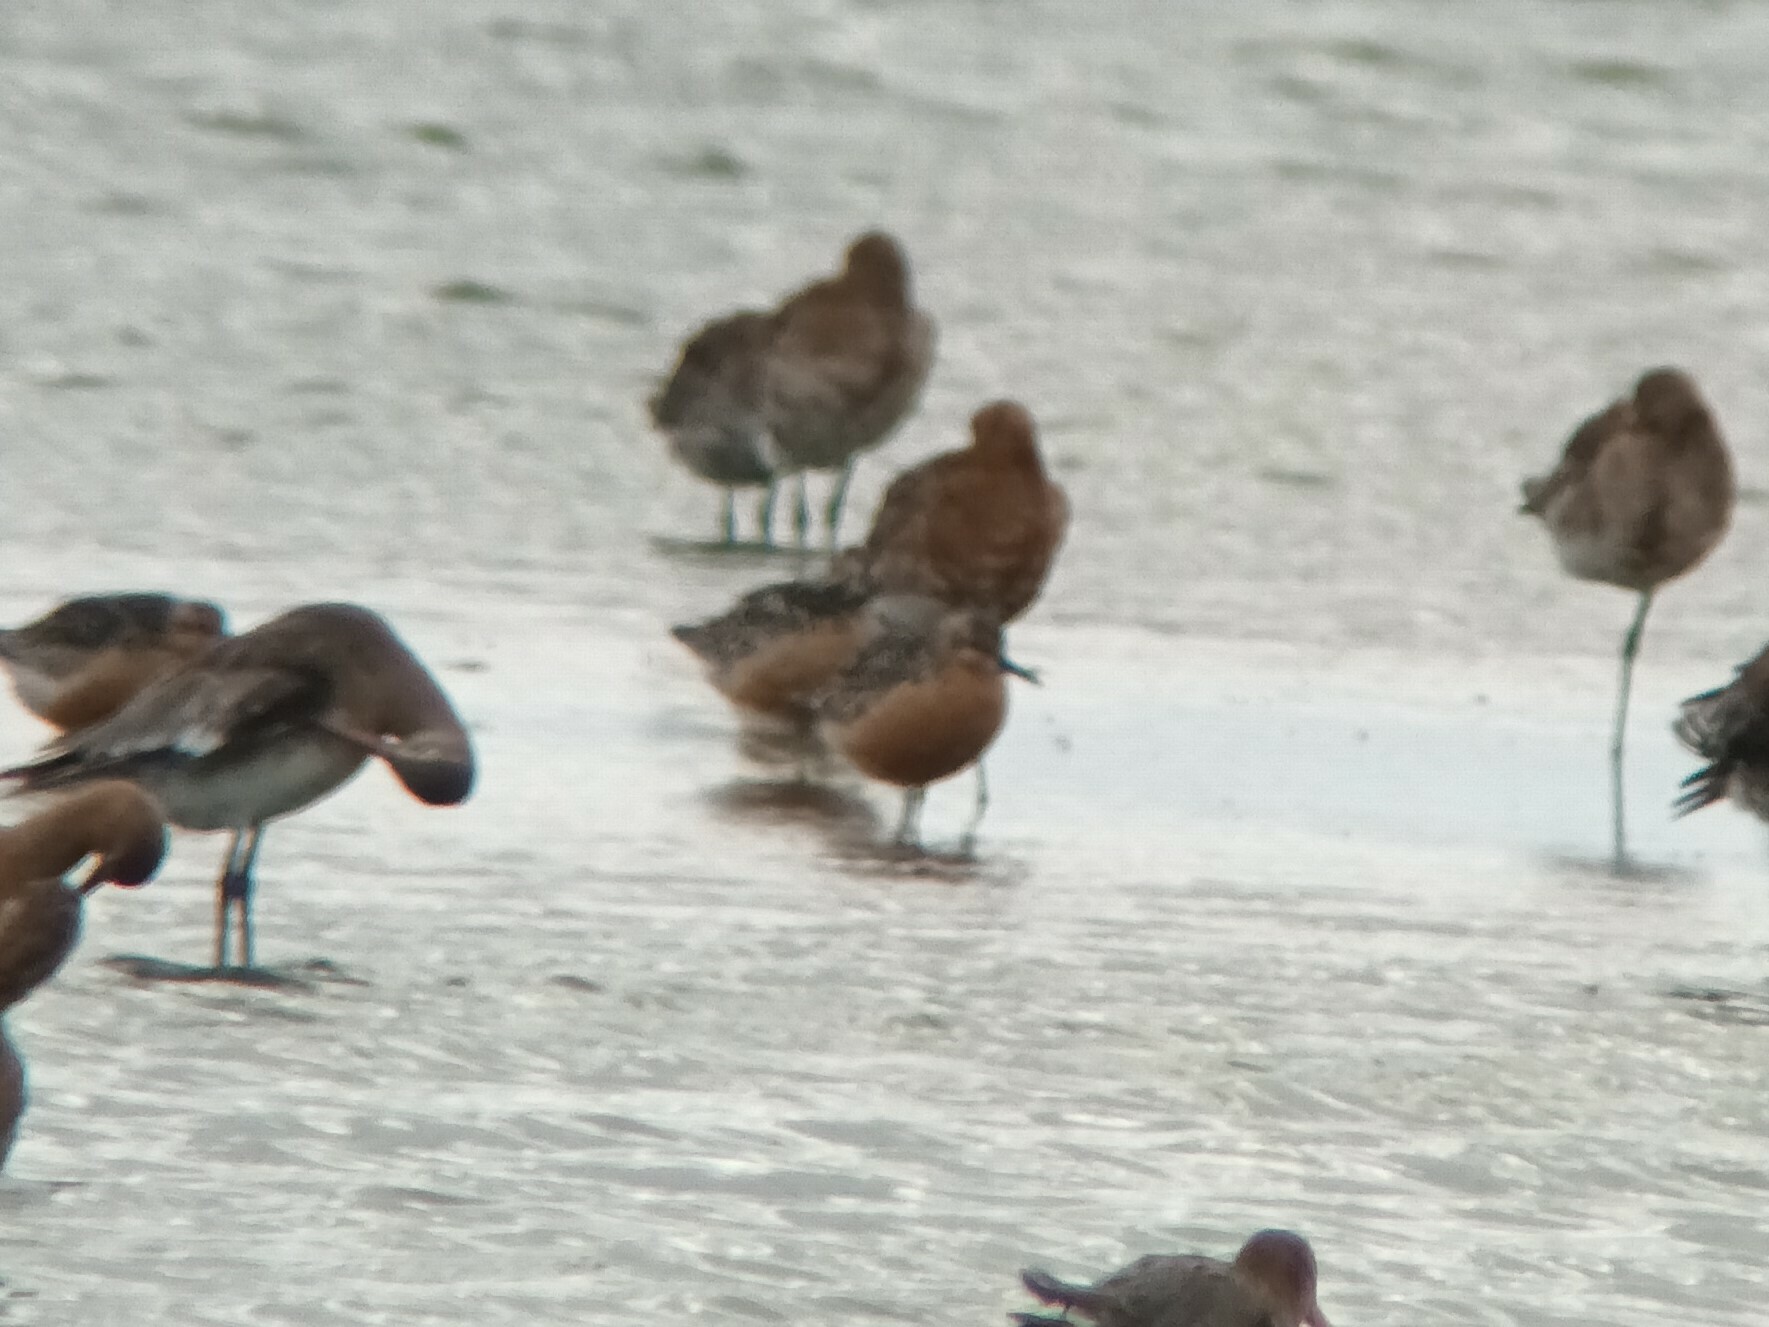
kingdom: Animalia
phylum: Chordata
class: Aves
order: Charadriiformes
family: Scolopacidae
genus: Calidris
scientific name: Calidris canutus
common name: Red knot
